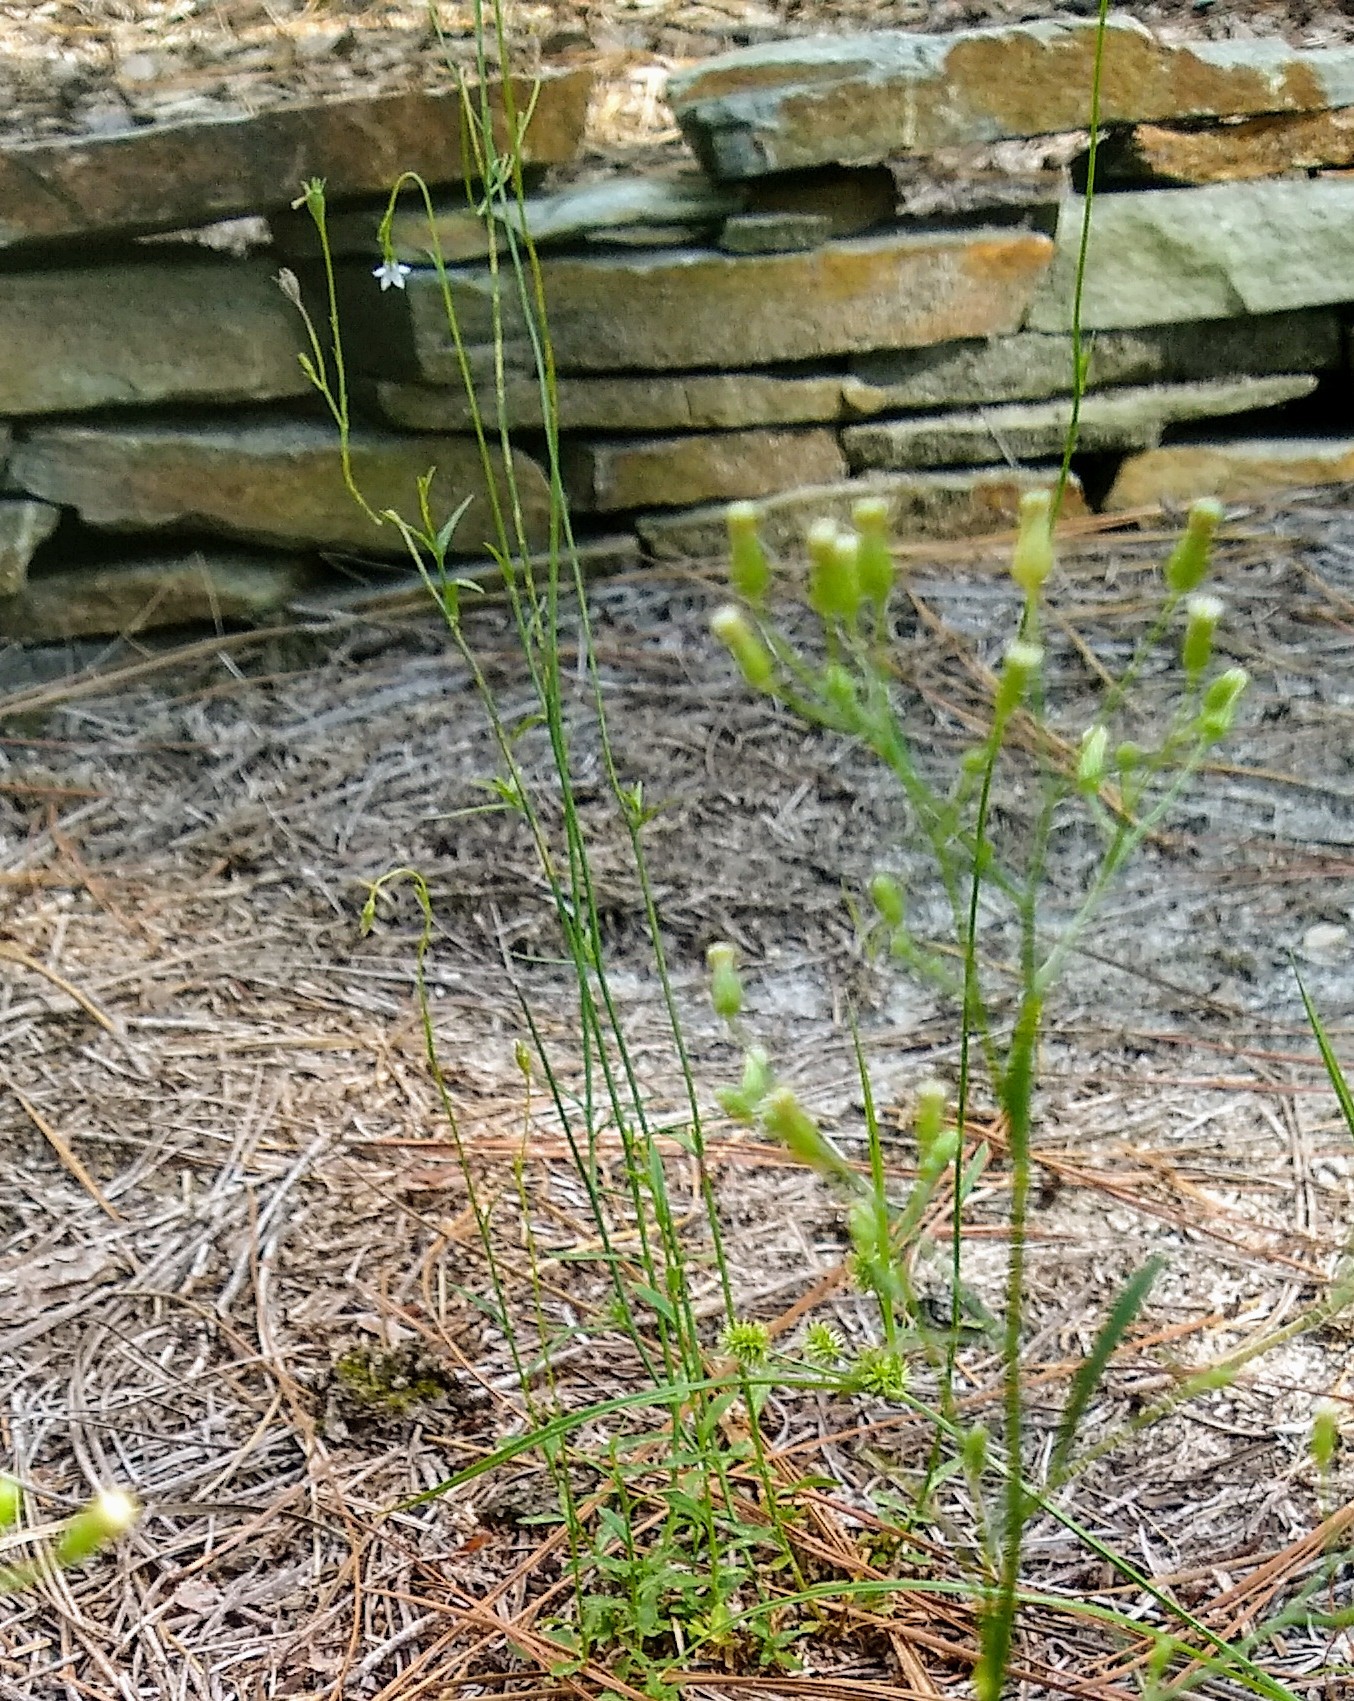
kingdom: Plantae
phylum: Tracheophyta
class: Magnoliopsida
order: Asterales
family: Campanulaceae
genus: Wahlenbergia
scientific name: Wahlenbergia marginata
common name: Southern rockbell
